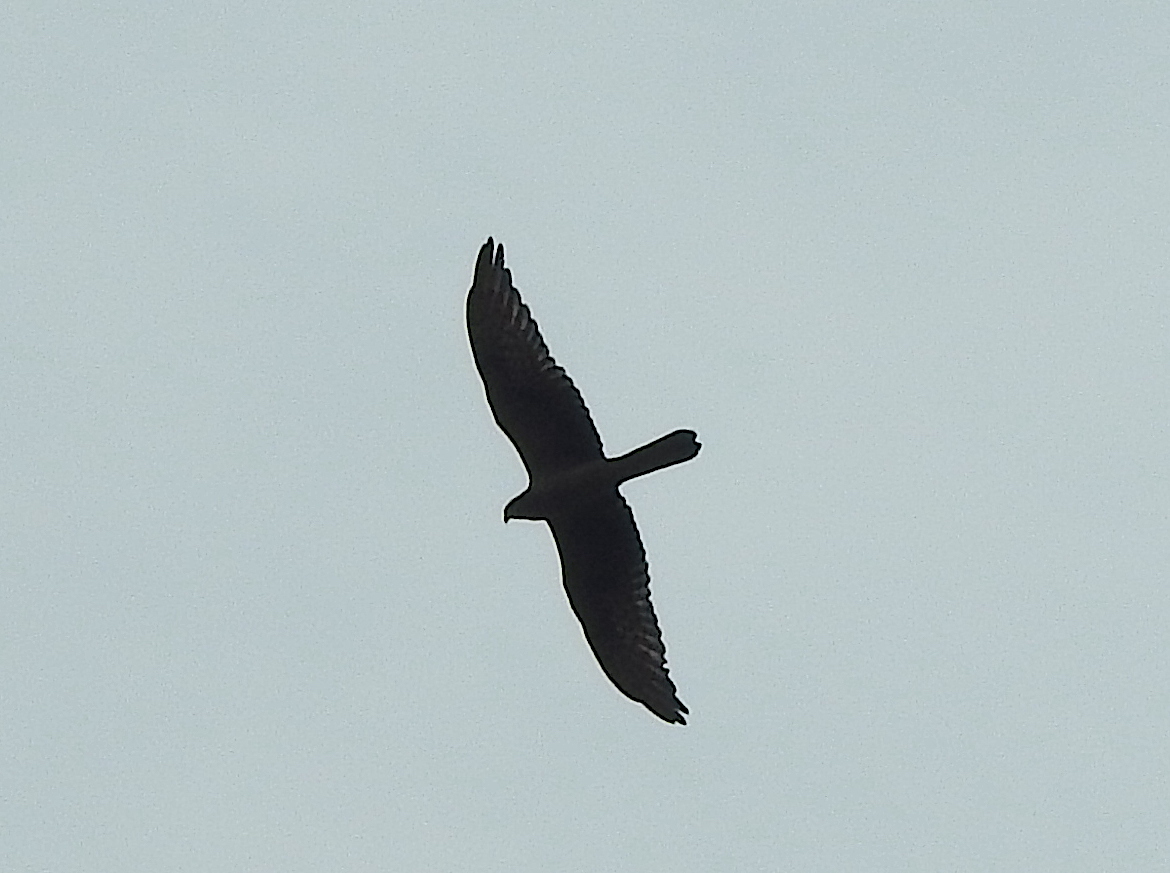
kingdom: Animalia
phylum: Chordata
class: Aves
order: Accipitriformes
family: Accipitridae
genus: Circus
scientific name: Circus pygargus
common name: Montagu's harrier
